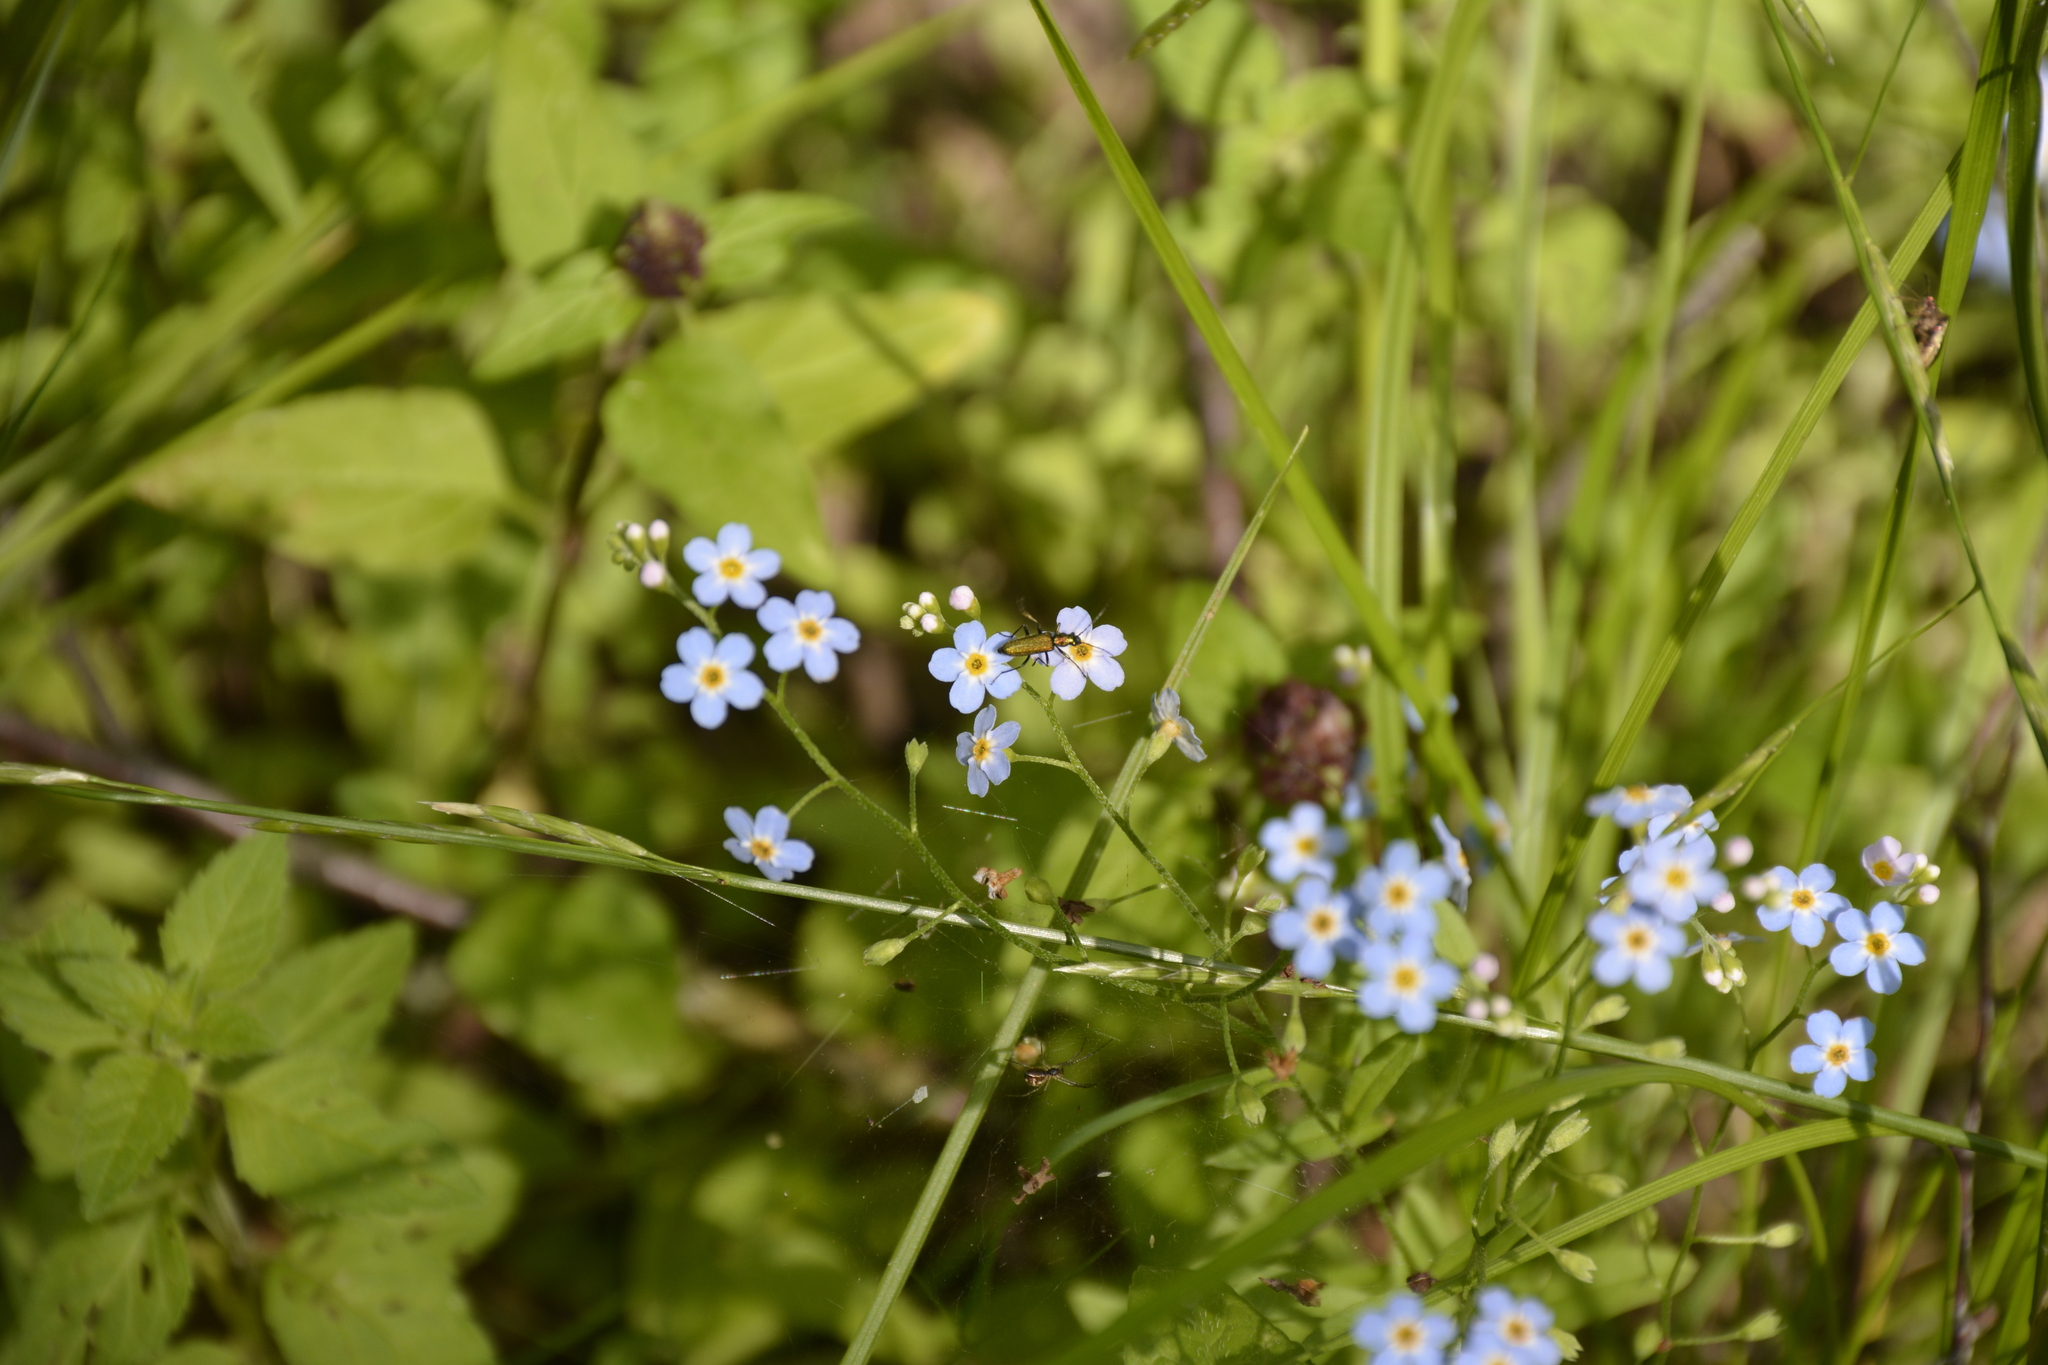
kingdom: Plantae
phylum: Tracheophyta
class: Magnoliopsida
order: Boraginales
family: Boraginaceae
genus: Myosotis
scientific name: Myosotis scorpioides
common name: Water forget-me-not
